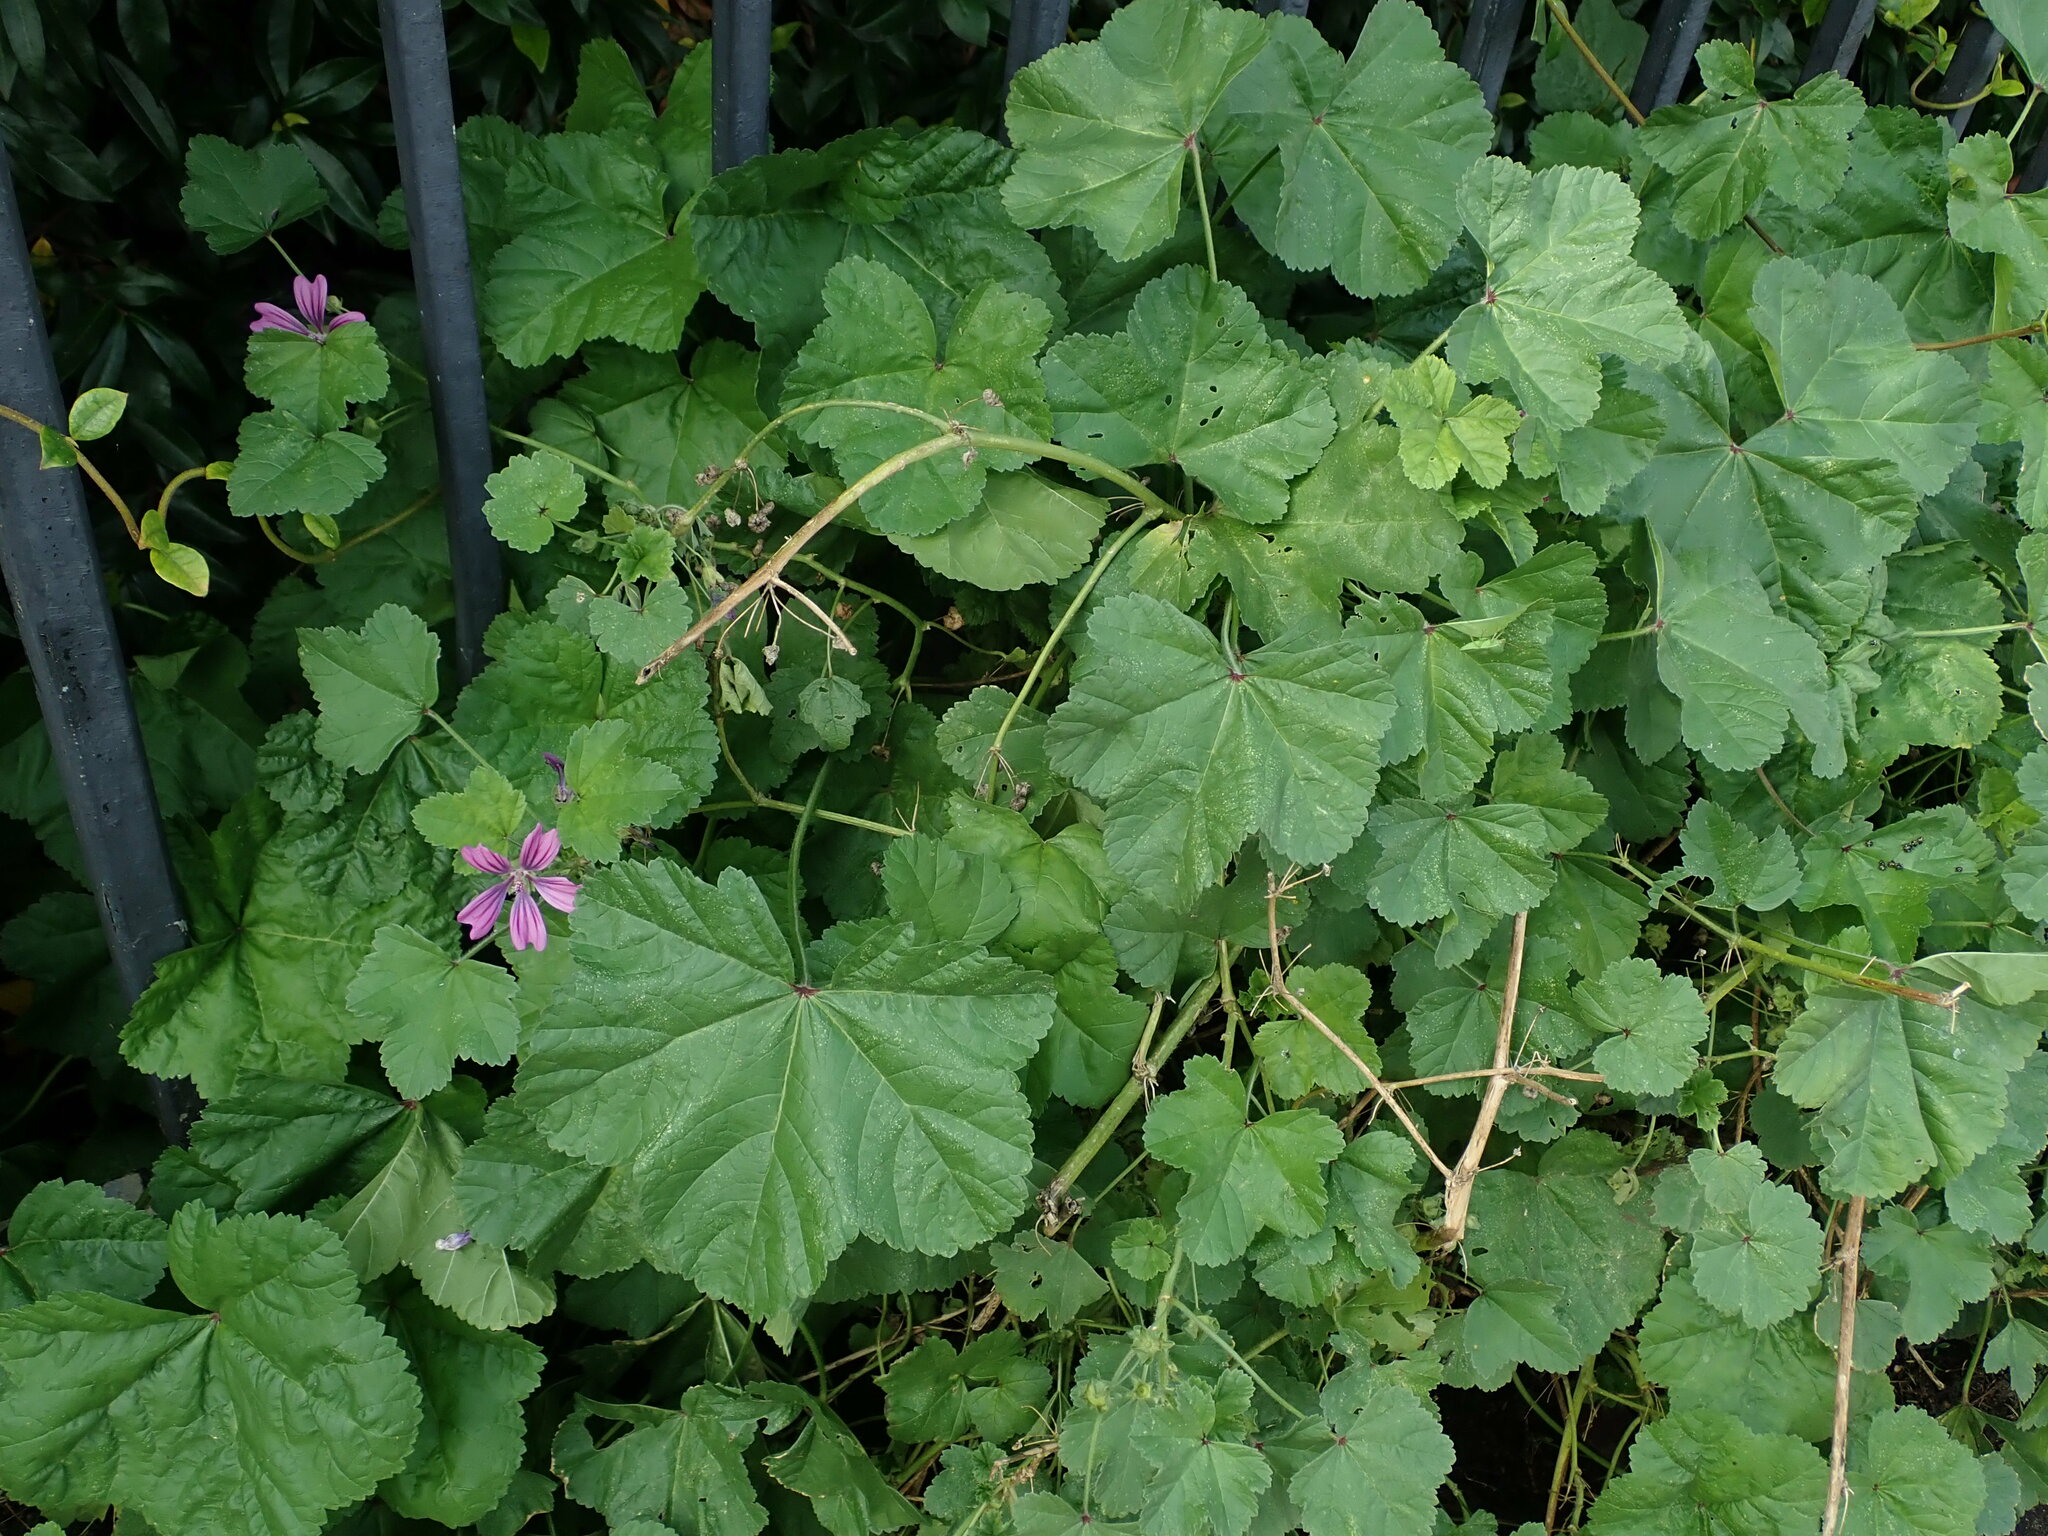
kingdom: Plantae
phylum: Tracheophyta
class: Magnoliopsida
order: Malvales
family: Malvaceae
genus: Malva
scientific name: Malva sylvestris
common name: Common mallow
